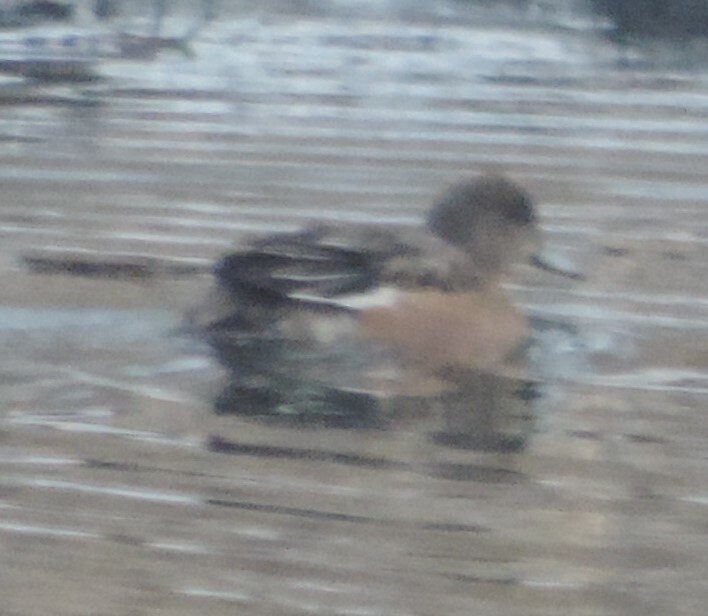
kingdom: Animalia
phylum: Chordata
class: Aves
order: Anseriformes
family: Anatidae
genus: Mareca
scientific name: Mareca americana
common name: American wigeon
